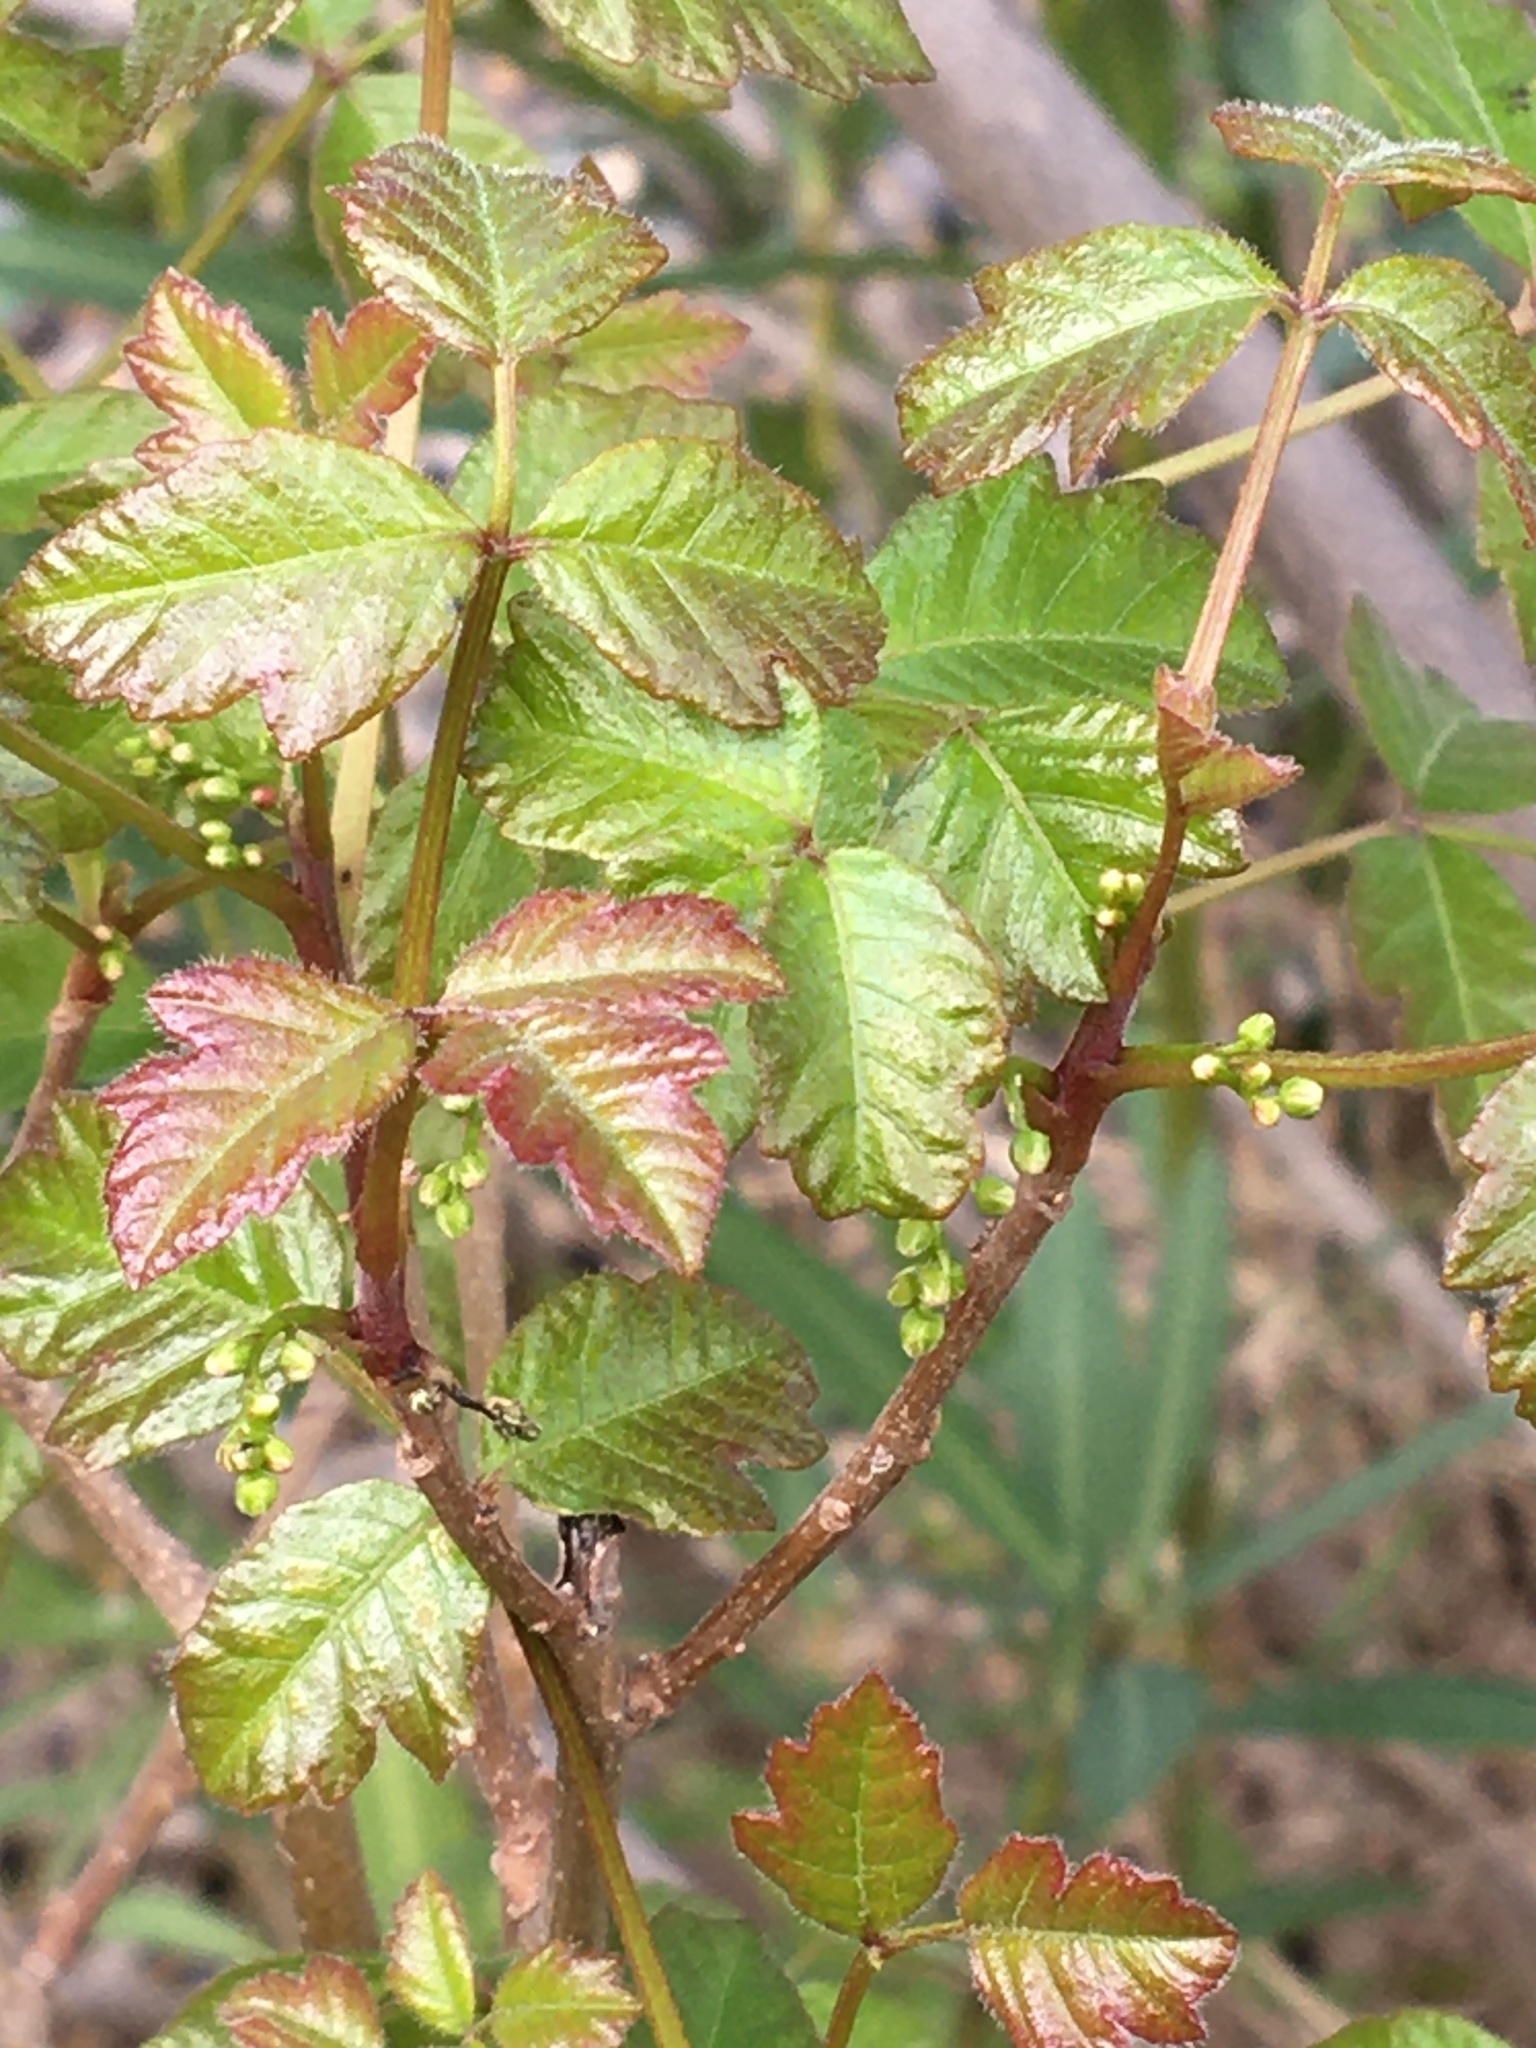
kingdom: Plantae
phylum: Tracheophyta
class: Magnoliopsida
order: Sapindales
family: Anacardiaceae
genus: Toxicodendron
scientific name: Toxicodendron diversilobum
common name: Pacific poison-oak
